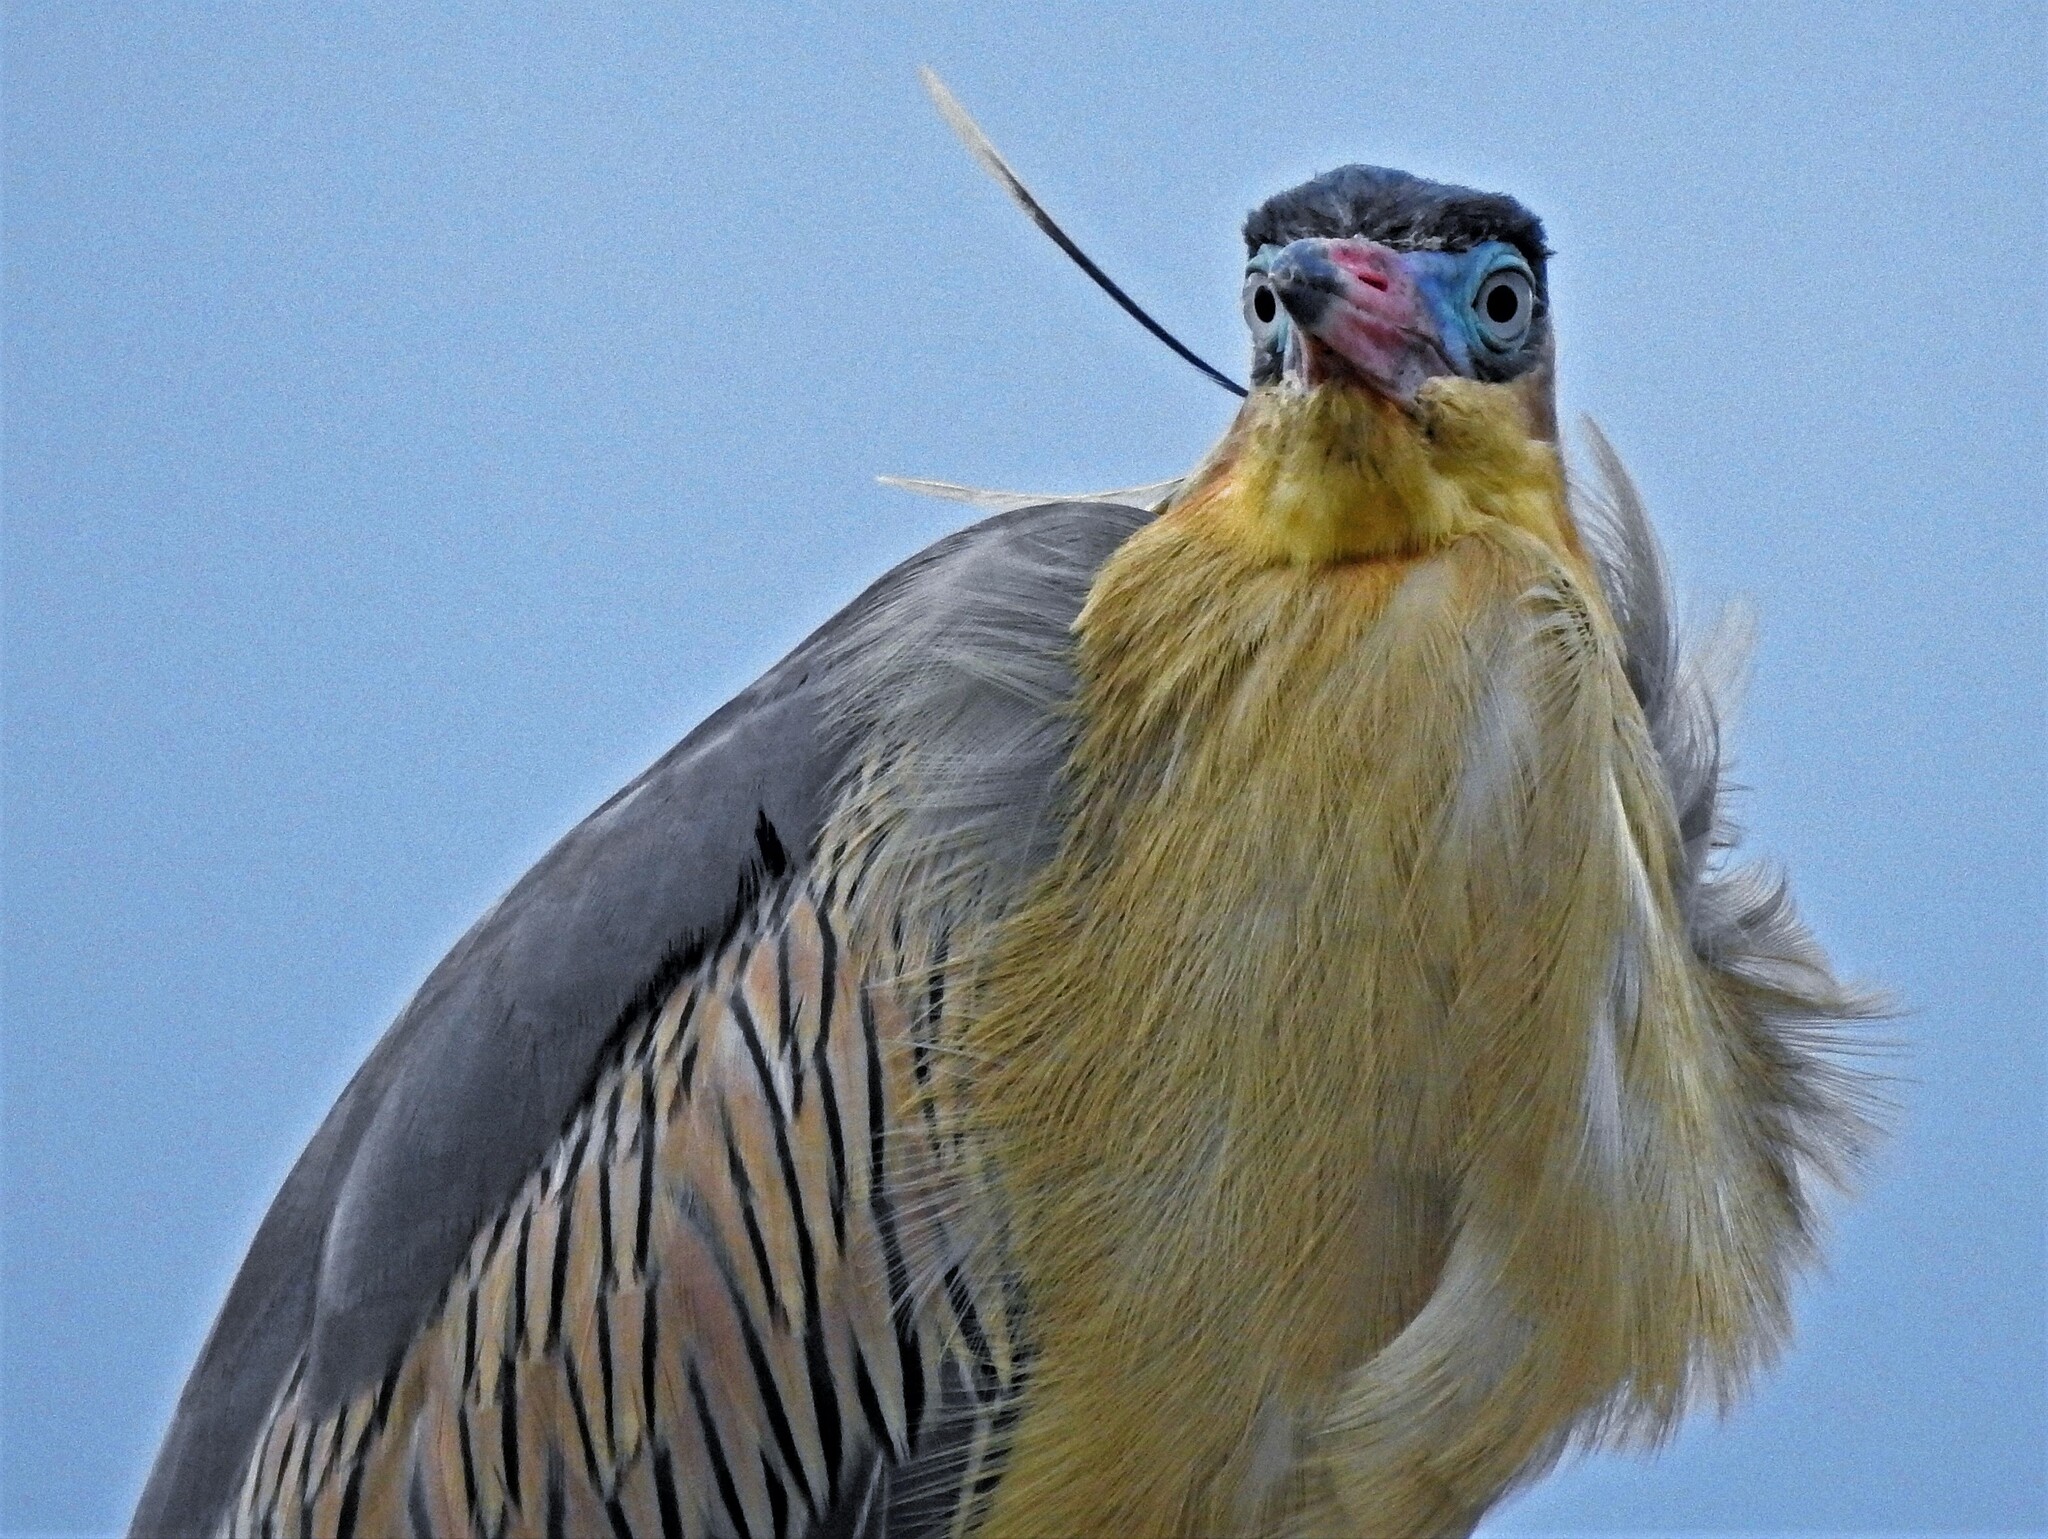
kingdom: Animalia
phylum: Chordata
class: Aves
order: Pelecaniformes
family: Ardeidae
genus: Syrigma
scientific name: Syrigma sibilatrix
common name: Whistling heron
